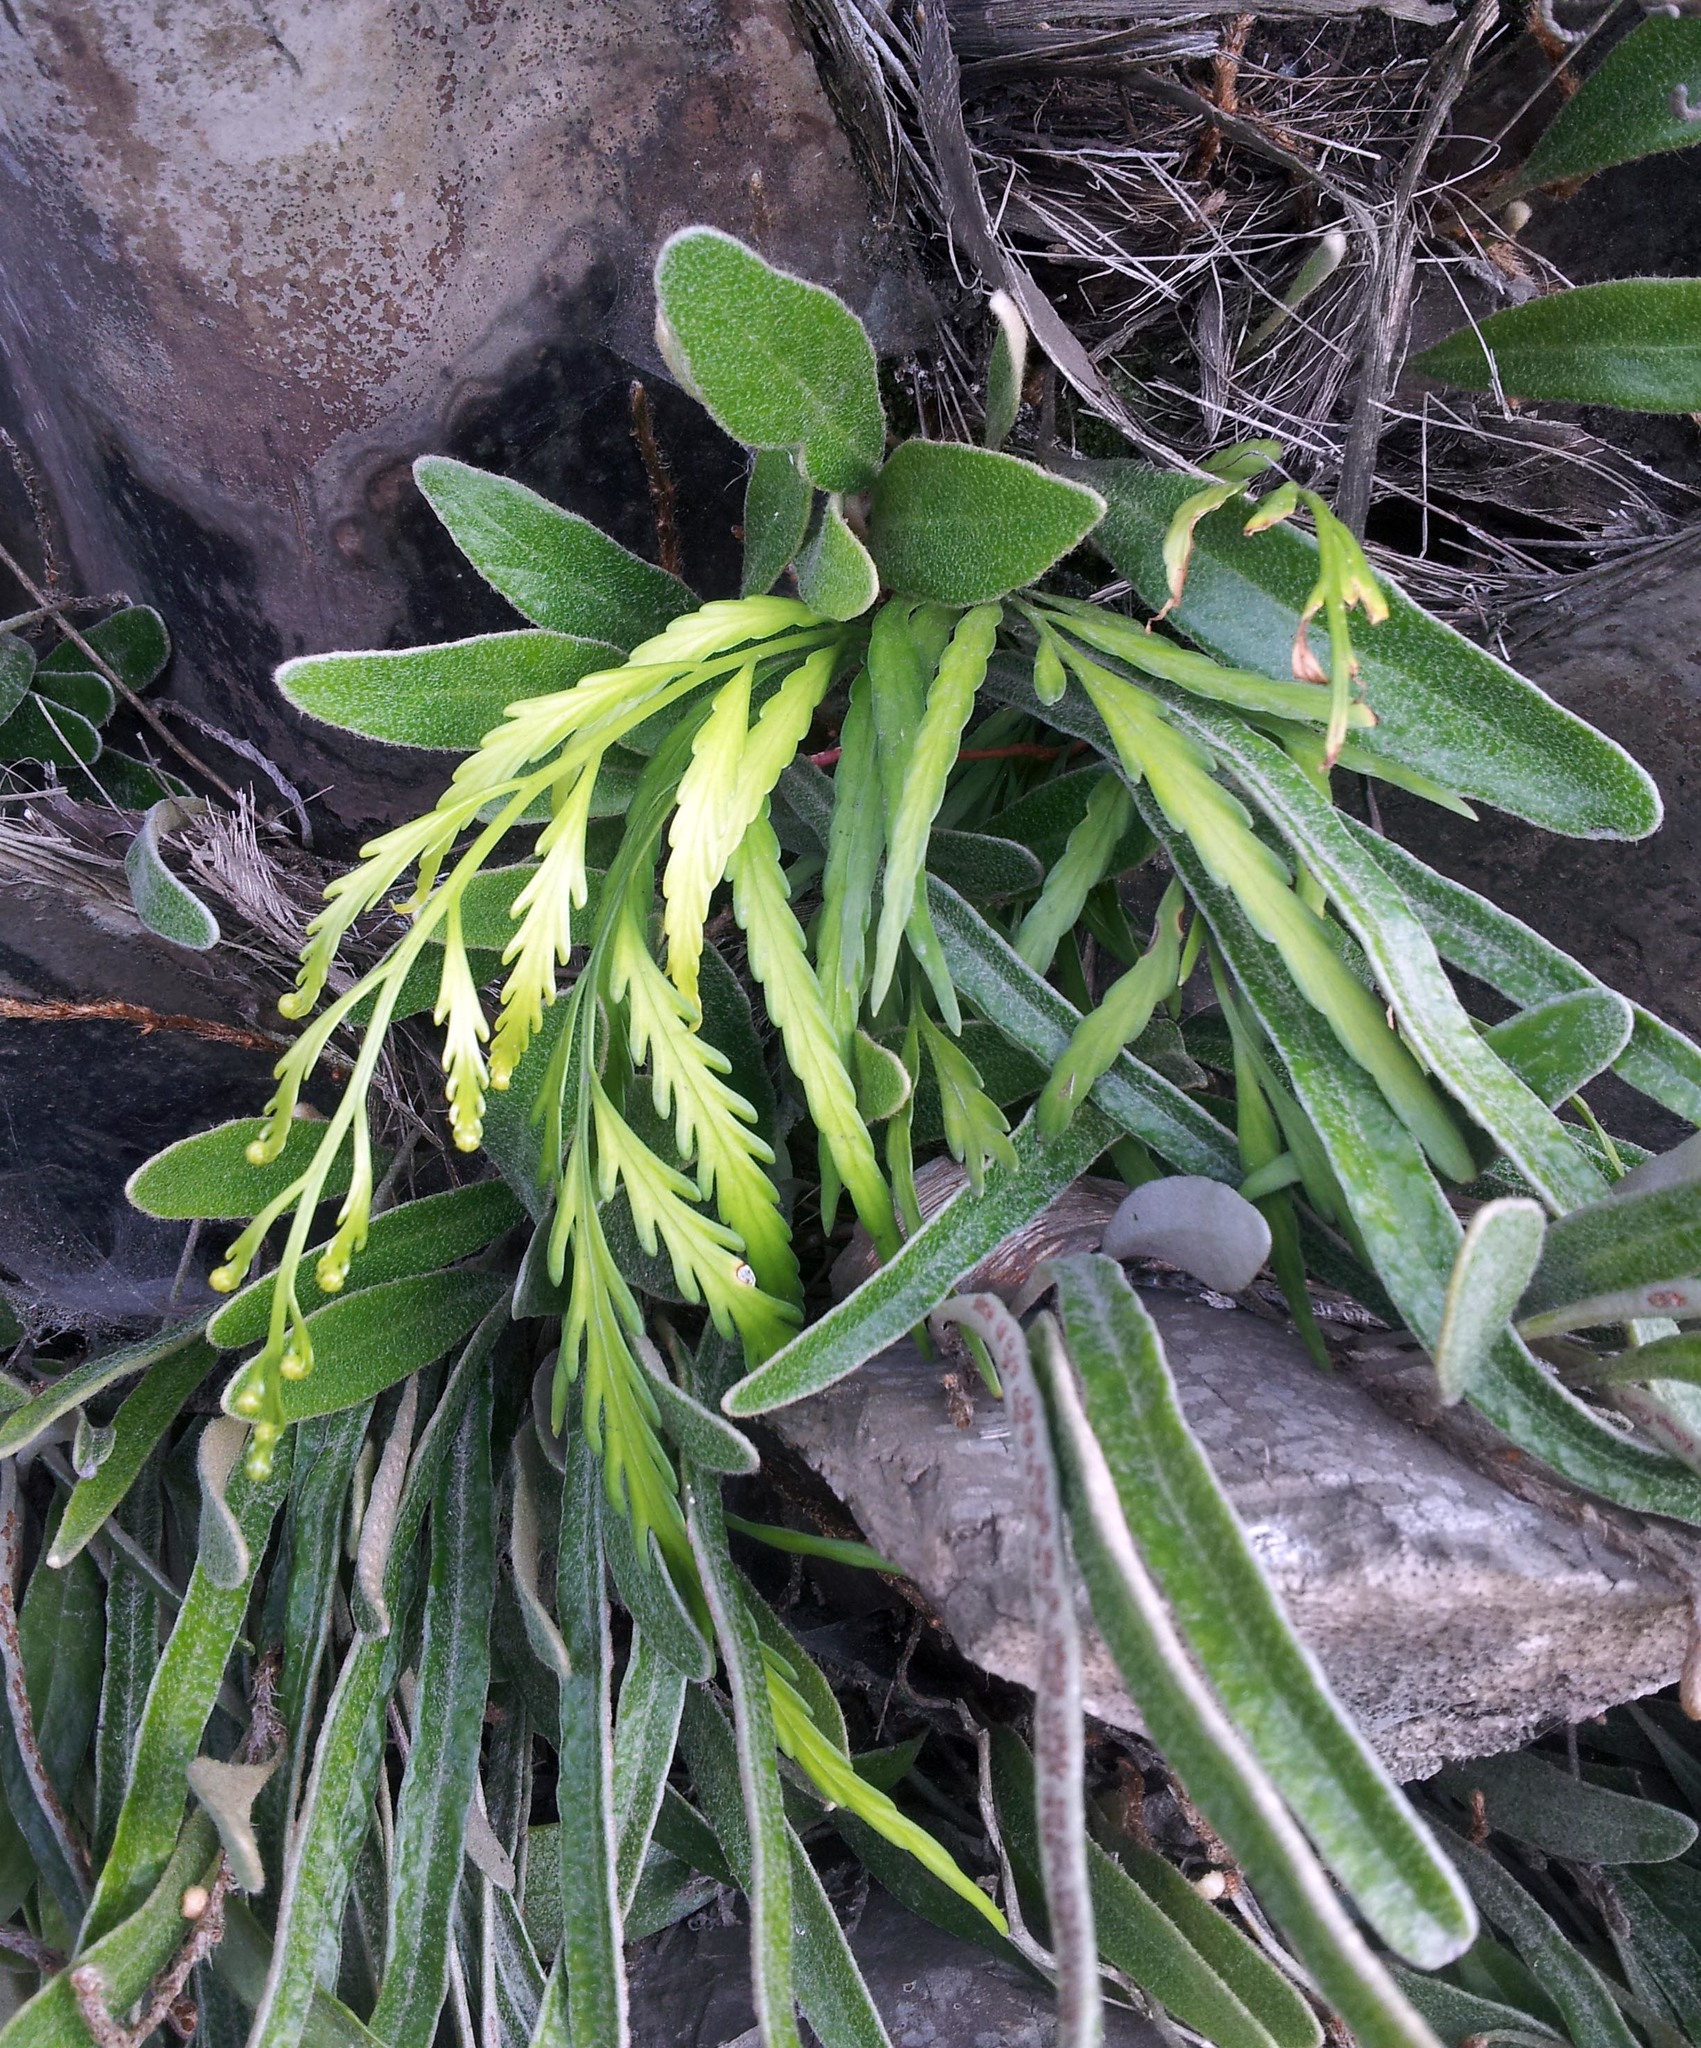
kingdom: Plantae
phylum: Tracheophyta
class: Polypodiopsida
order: Polypodiales
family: Aspleniaceae
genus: Asplenium
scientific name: Asplenium flaccidum
